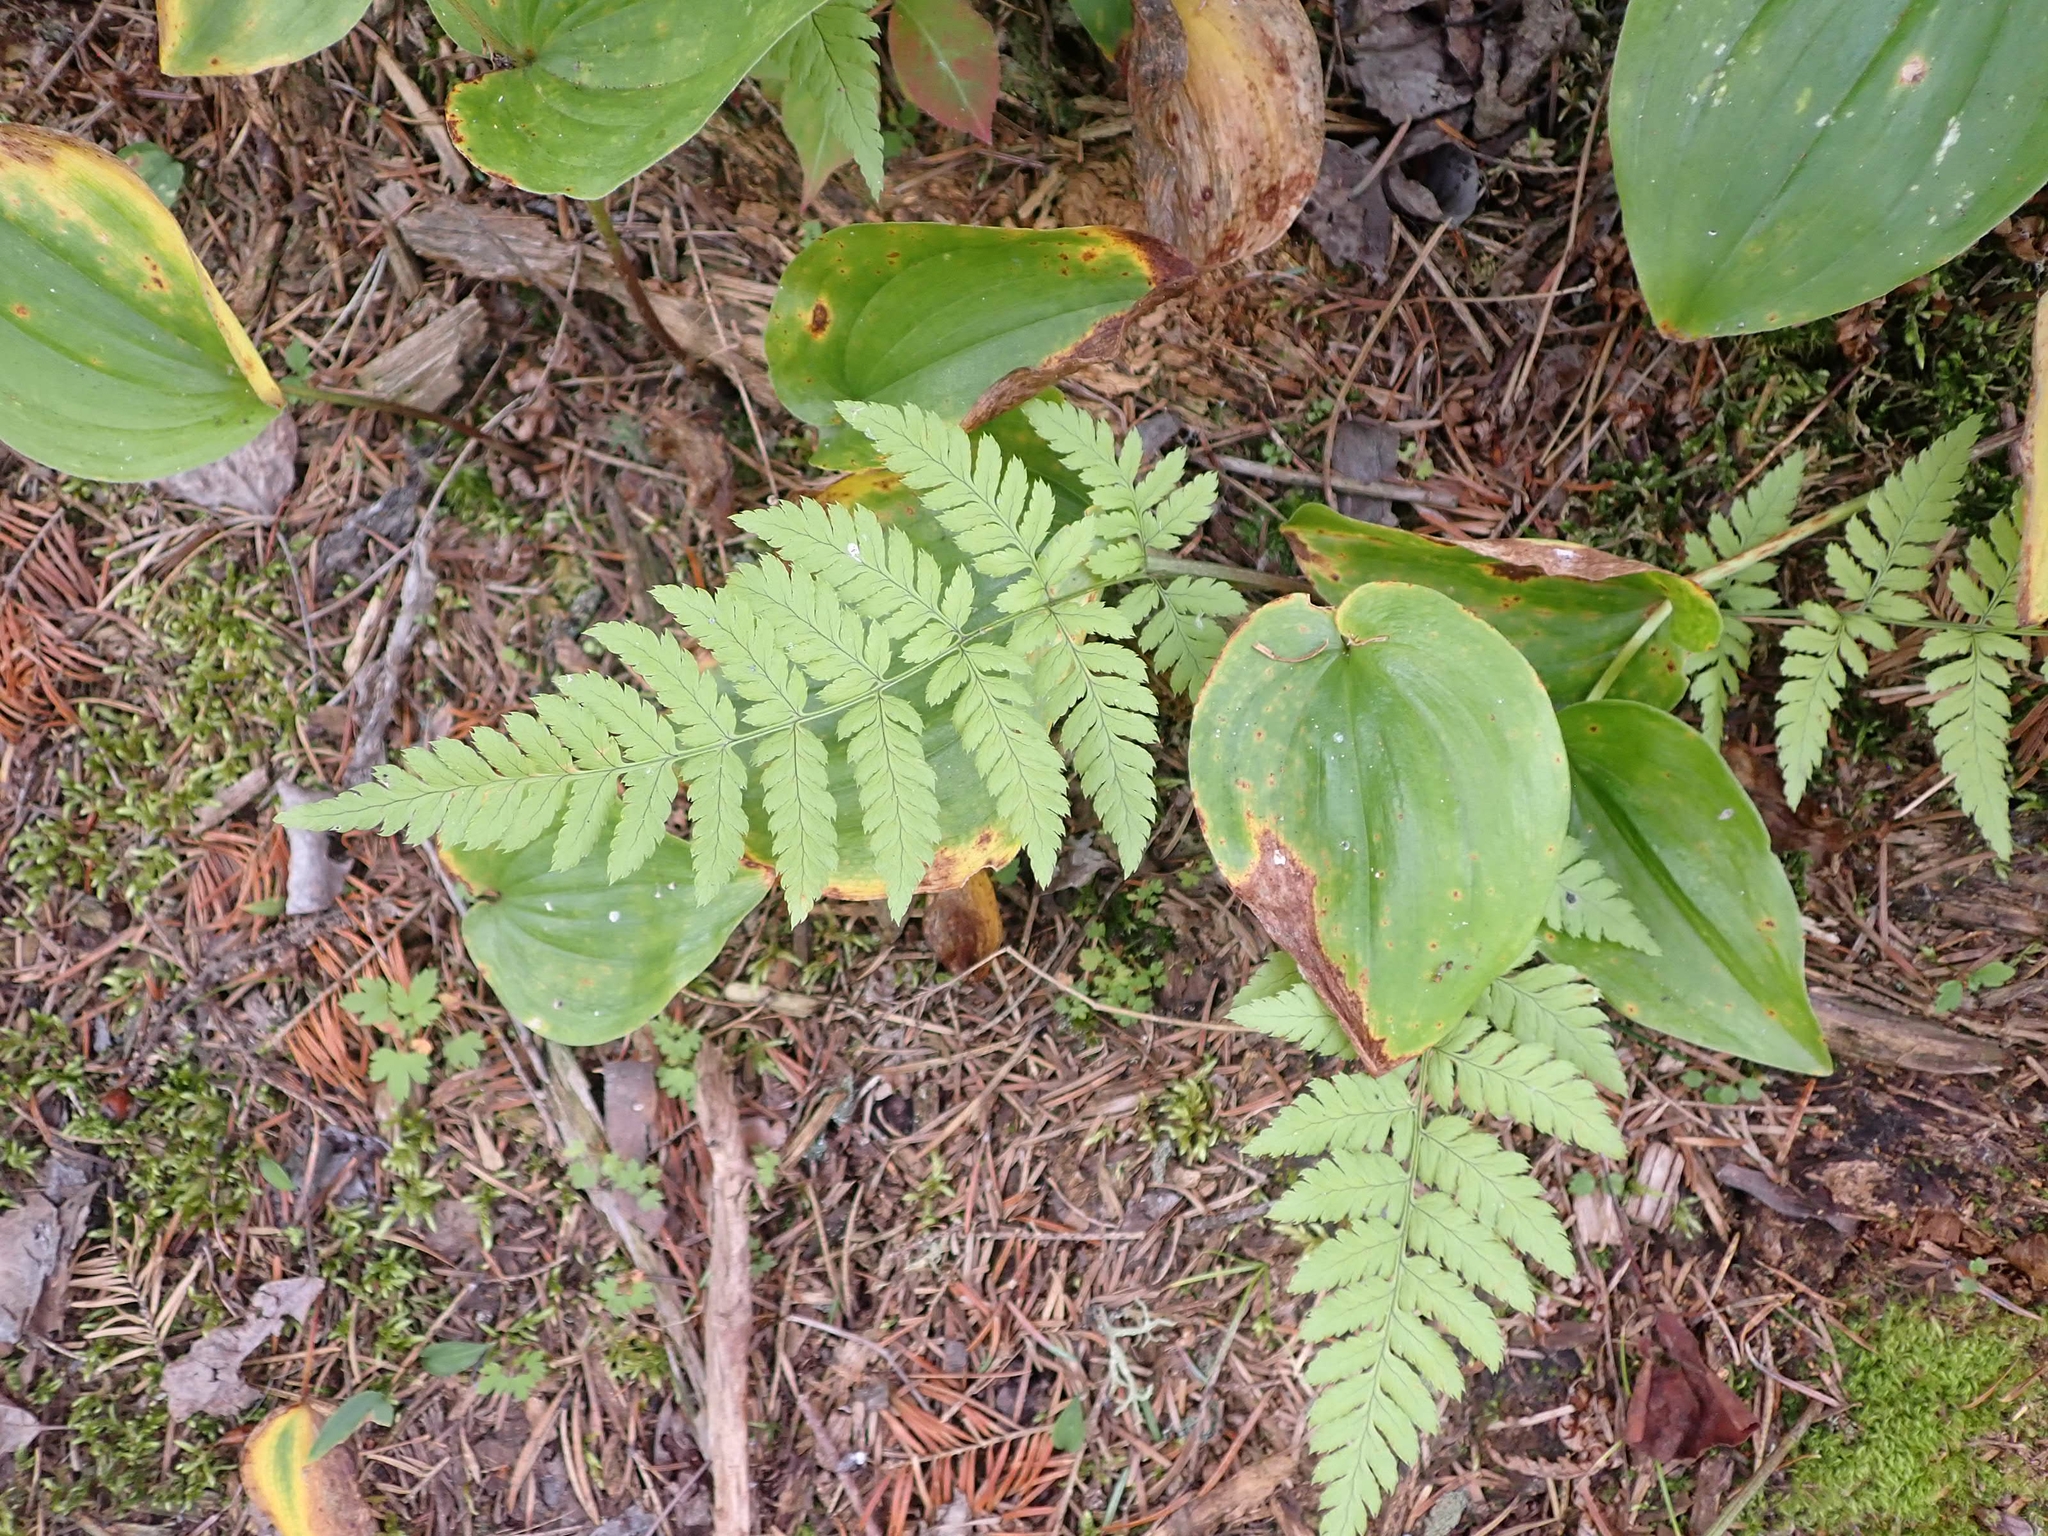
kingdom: Plantae
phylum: Tracheophyta
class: Polypodiopsida
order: Polypodiales
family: Dryopteridaceae
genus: Dryopteris
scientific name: Dryopteris carthusiana
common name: Narrow buckler-fern
